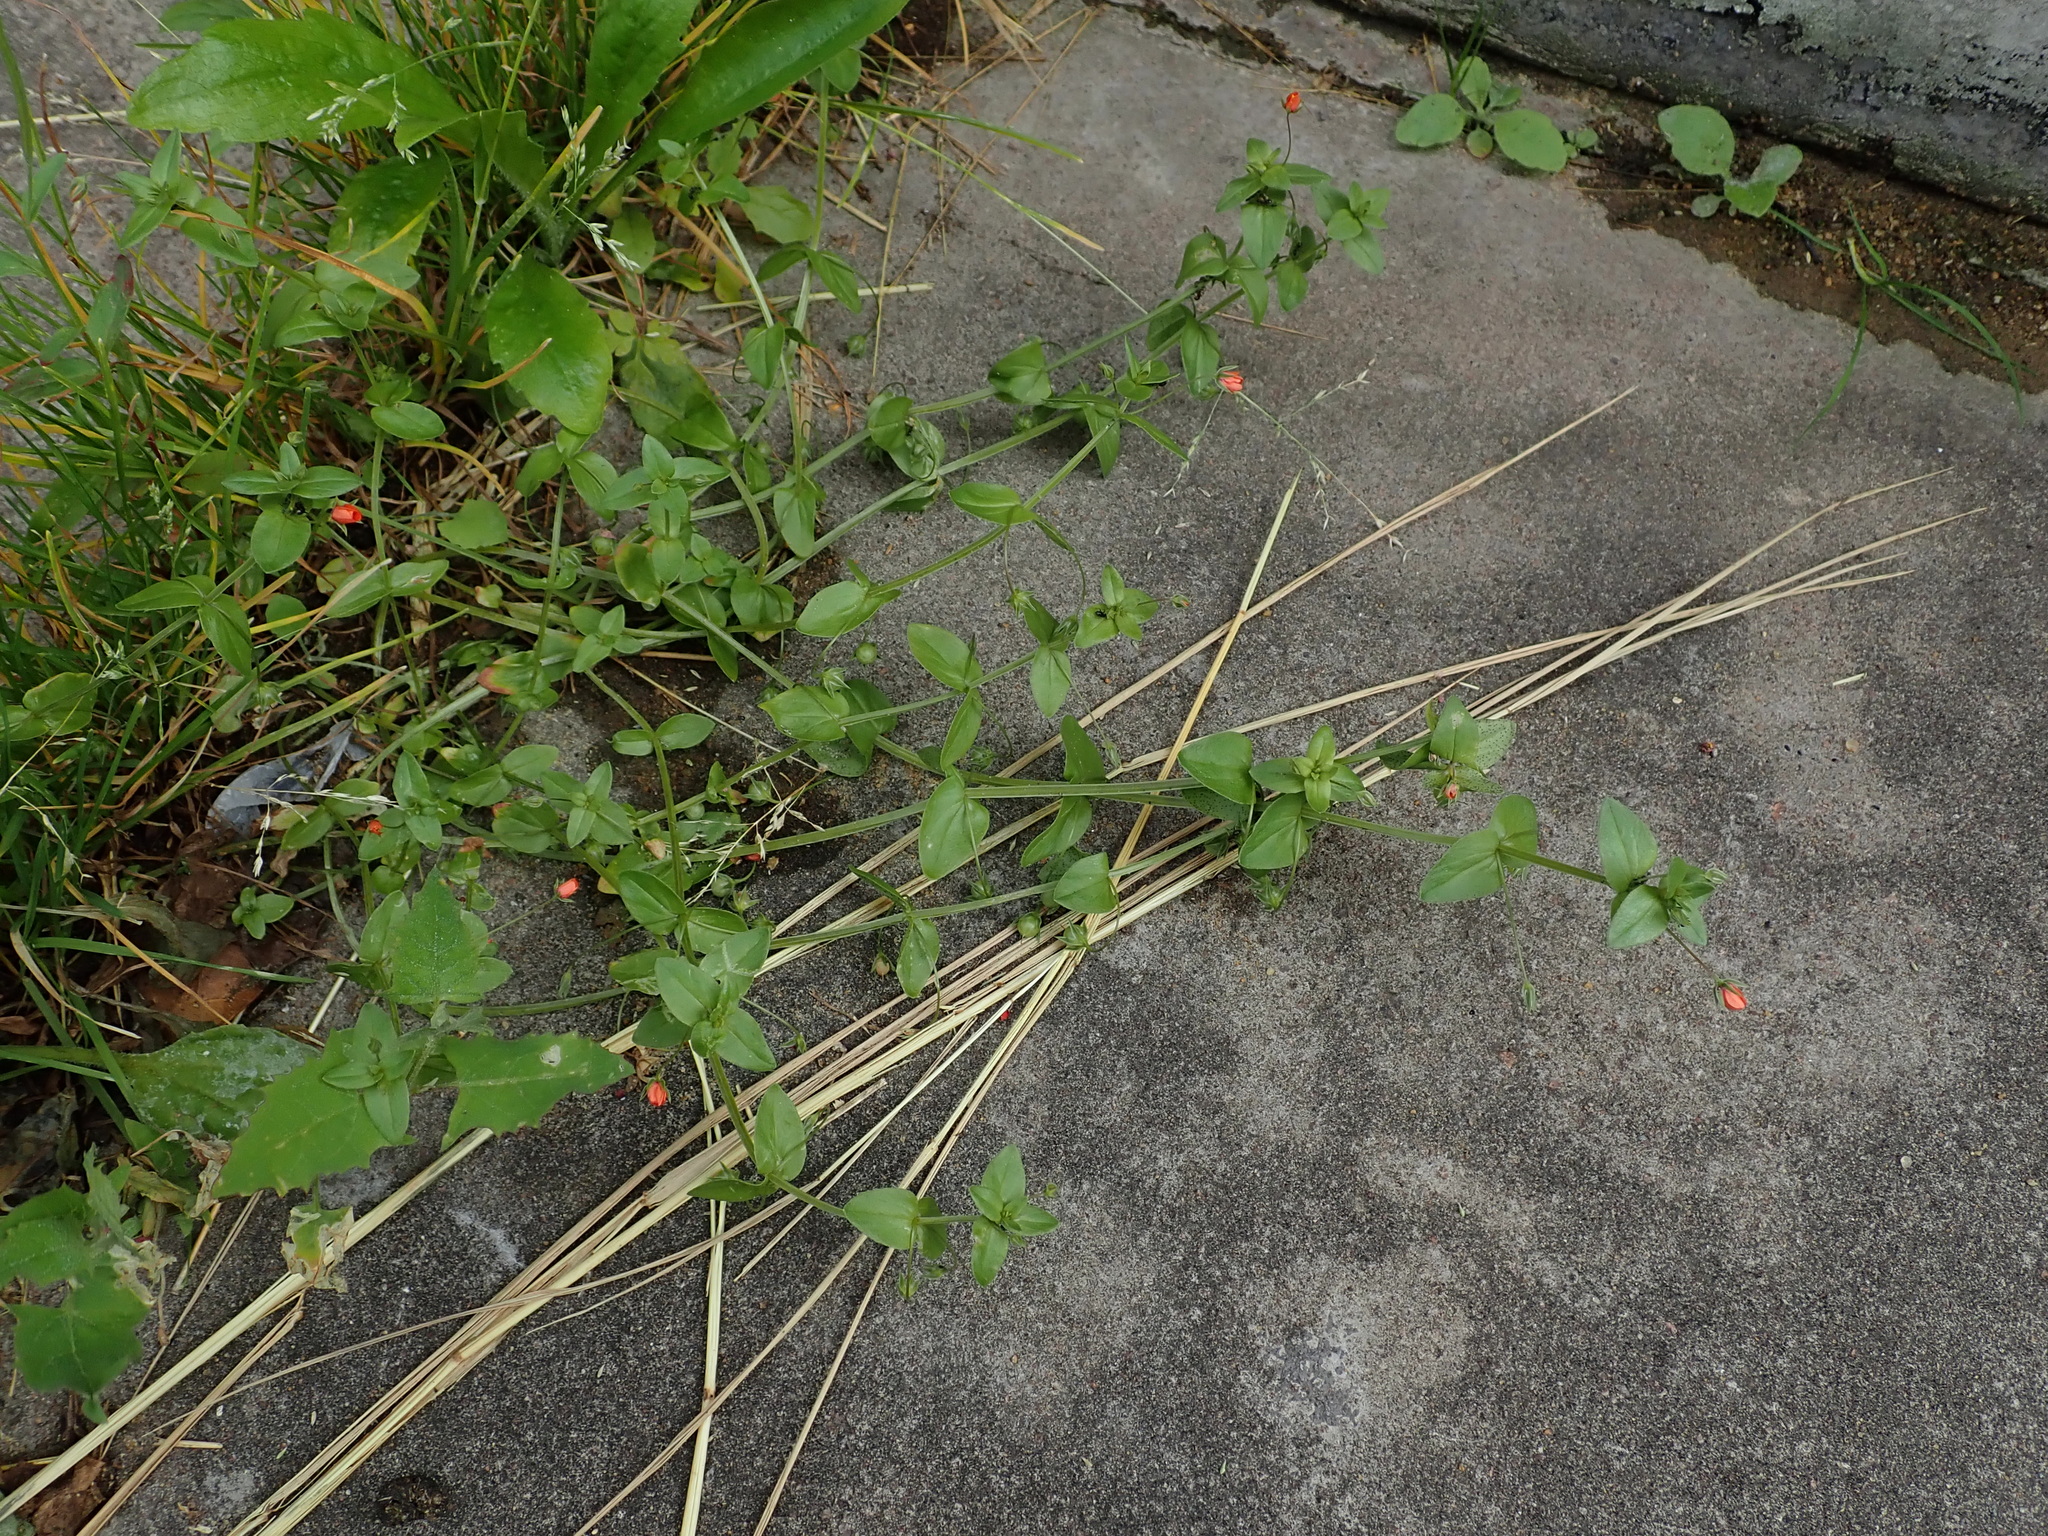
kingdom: Plantae
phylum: Tracheophyta
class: Magnoliopsida
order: Ericales
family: Primulaceae
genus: Lysimachia
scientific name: Lysimachia arvensis
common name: Scarlet pimpernel
